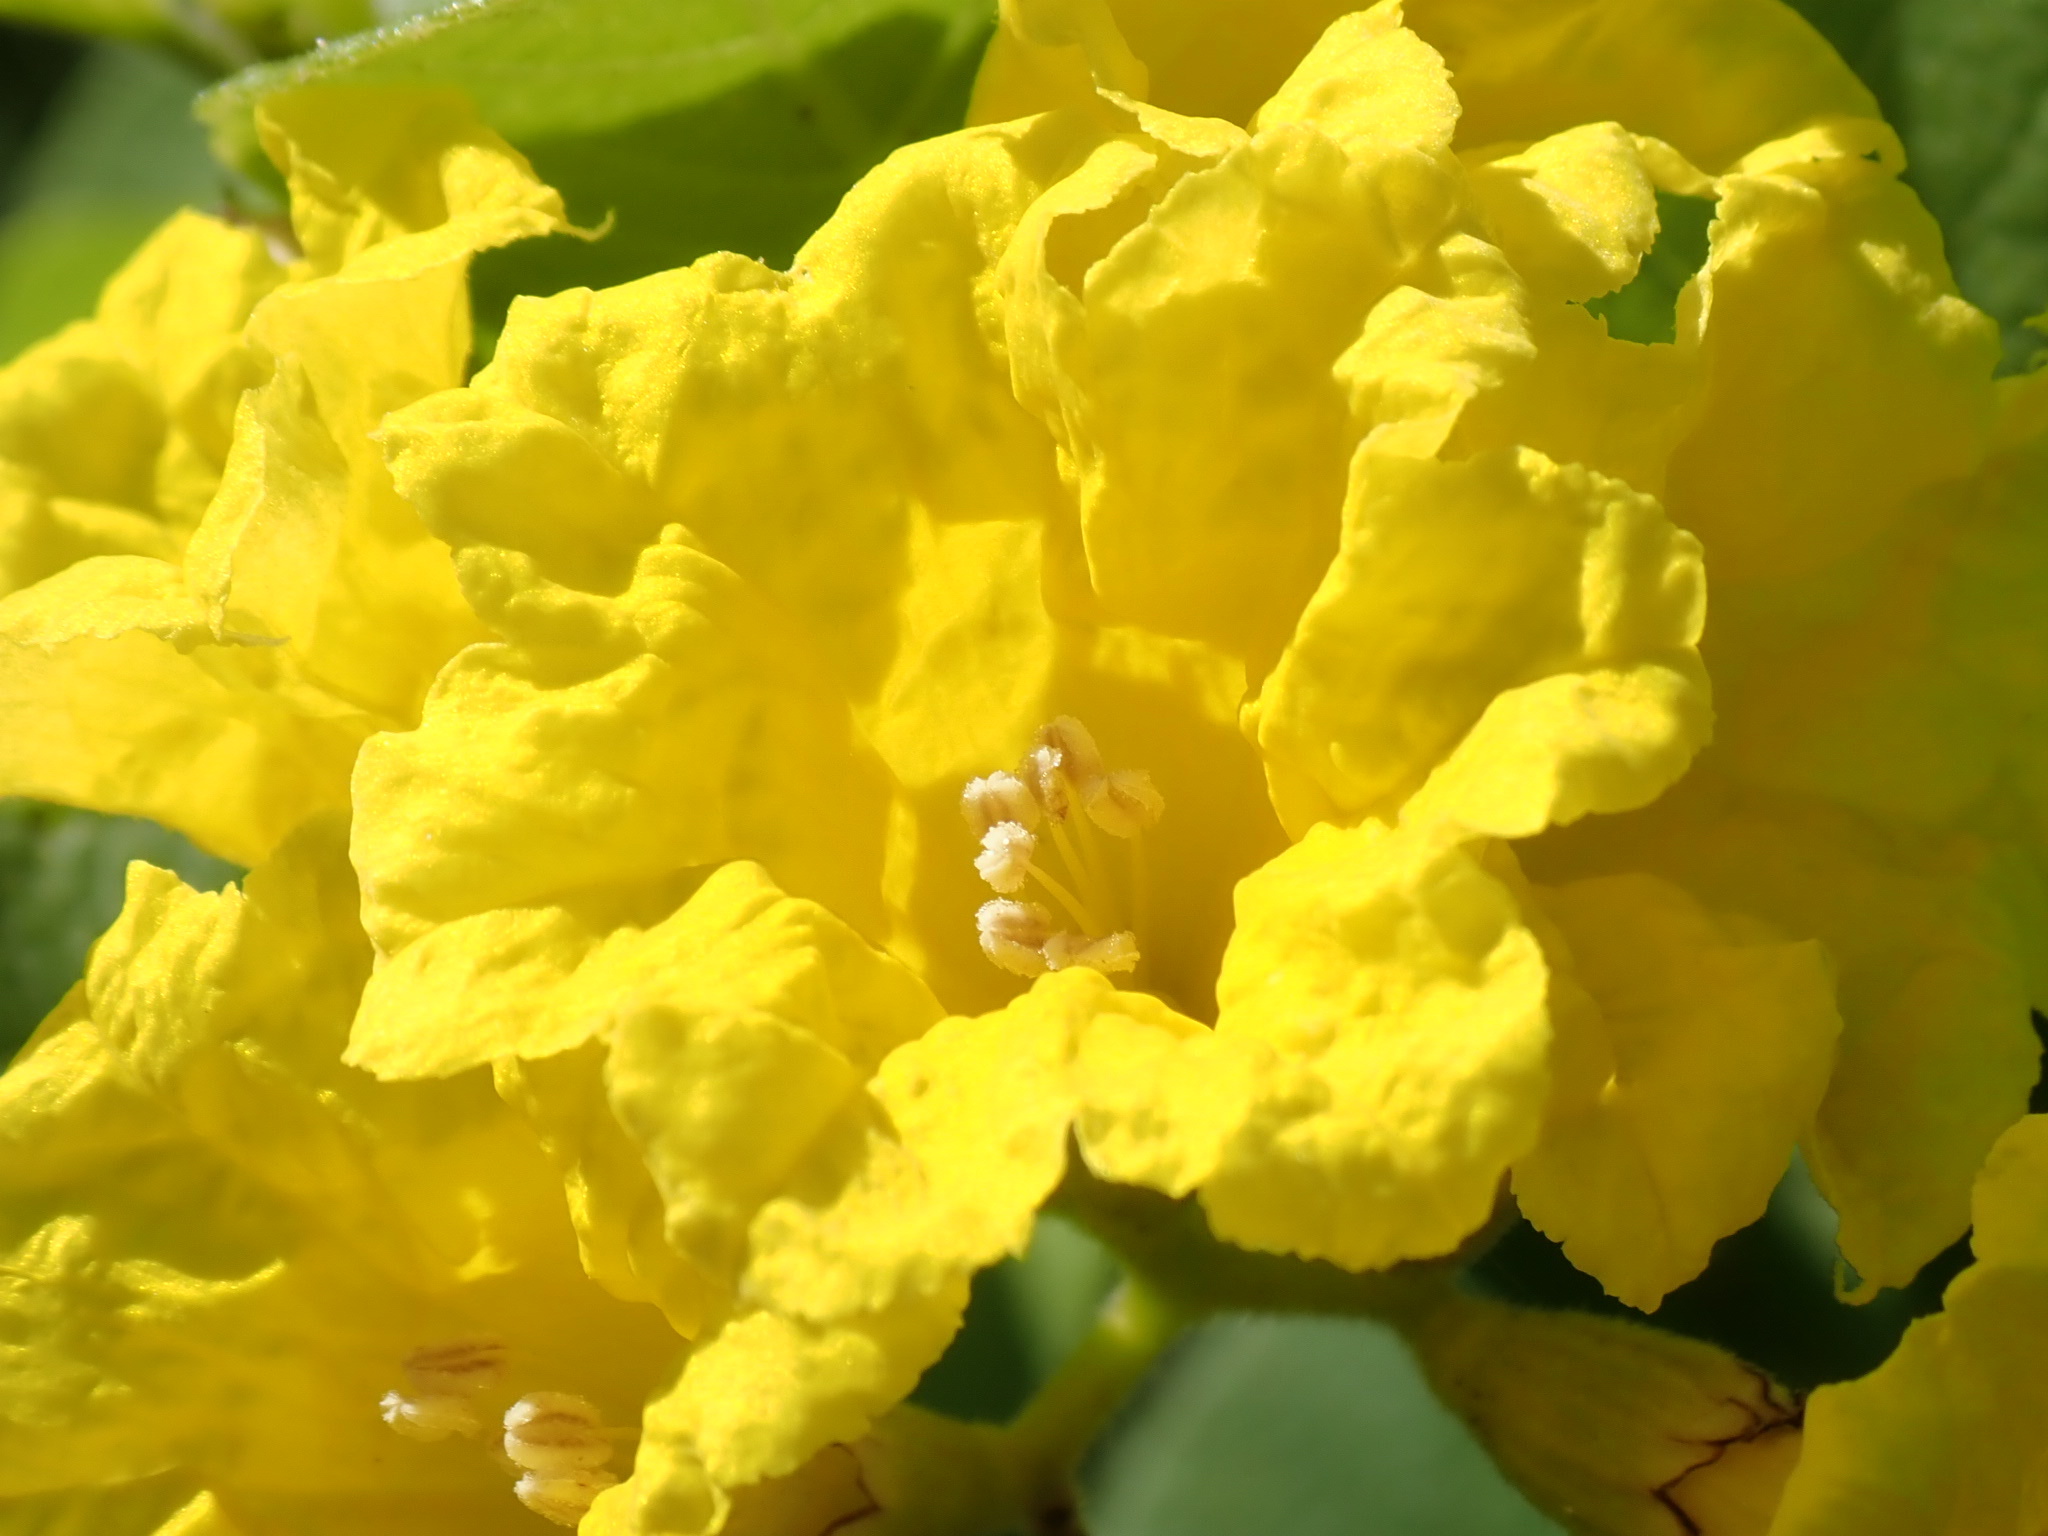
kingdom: Plantae
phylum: Tracheophyta
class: Magnoliopsida
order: Boraginales
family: Cordiaceae
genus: Cordia
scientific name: Cordia lutea
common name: Yellow geiger
